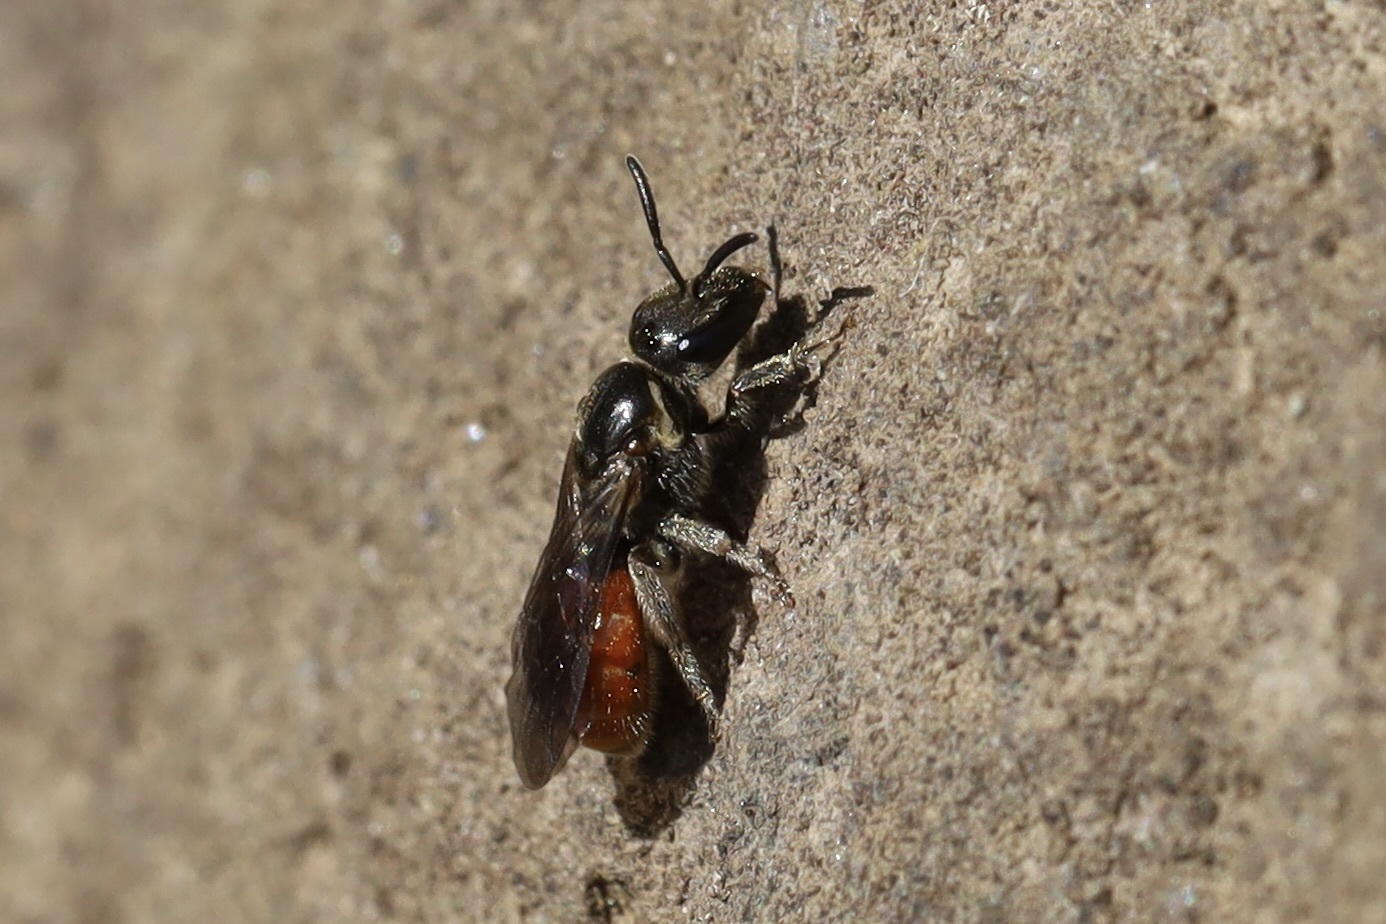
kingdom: Animalia
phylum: Arthropoda
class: Insecta
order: Hymenoptera
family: Halictidae
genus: Lasioglossum
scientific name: Lasioglossum ovaliceps
